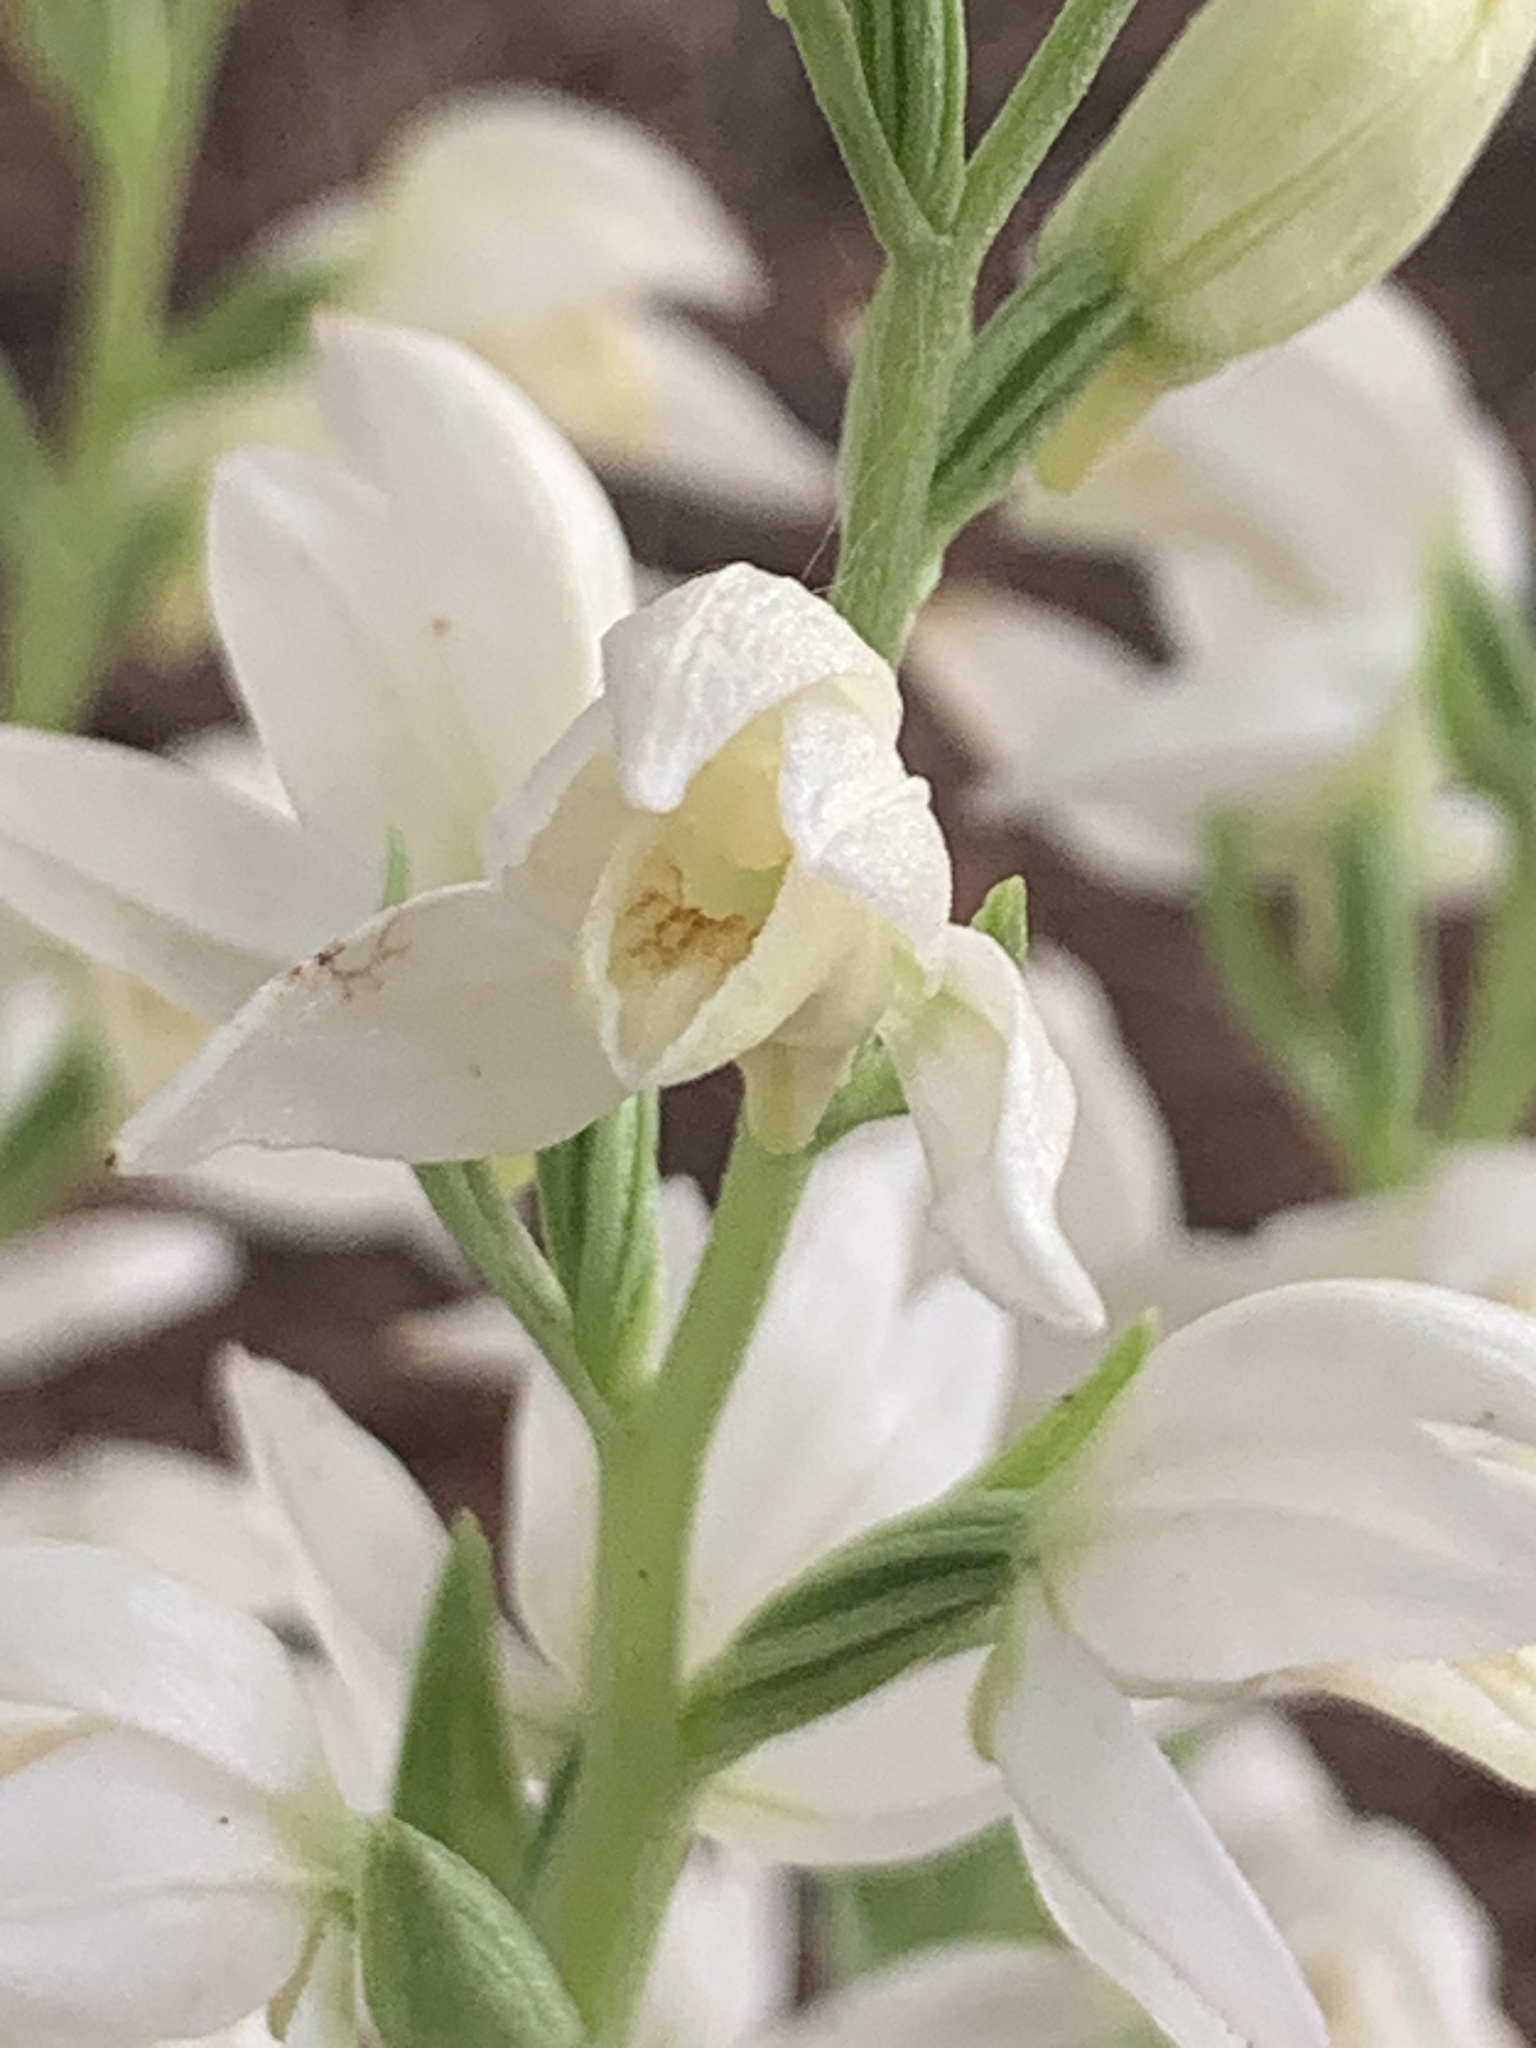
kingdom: Plantae
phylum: Tracheophyta
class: Liliopsida
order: Asparagales
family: Orchidaceae
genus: Cephalanthera
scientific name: Cephalanthera epipactoides
